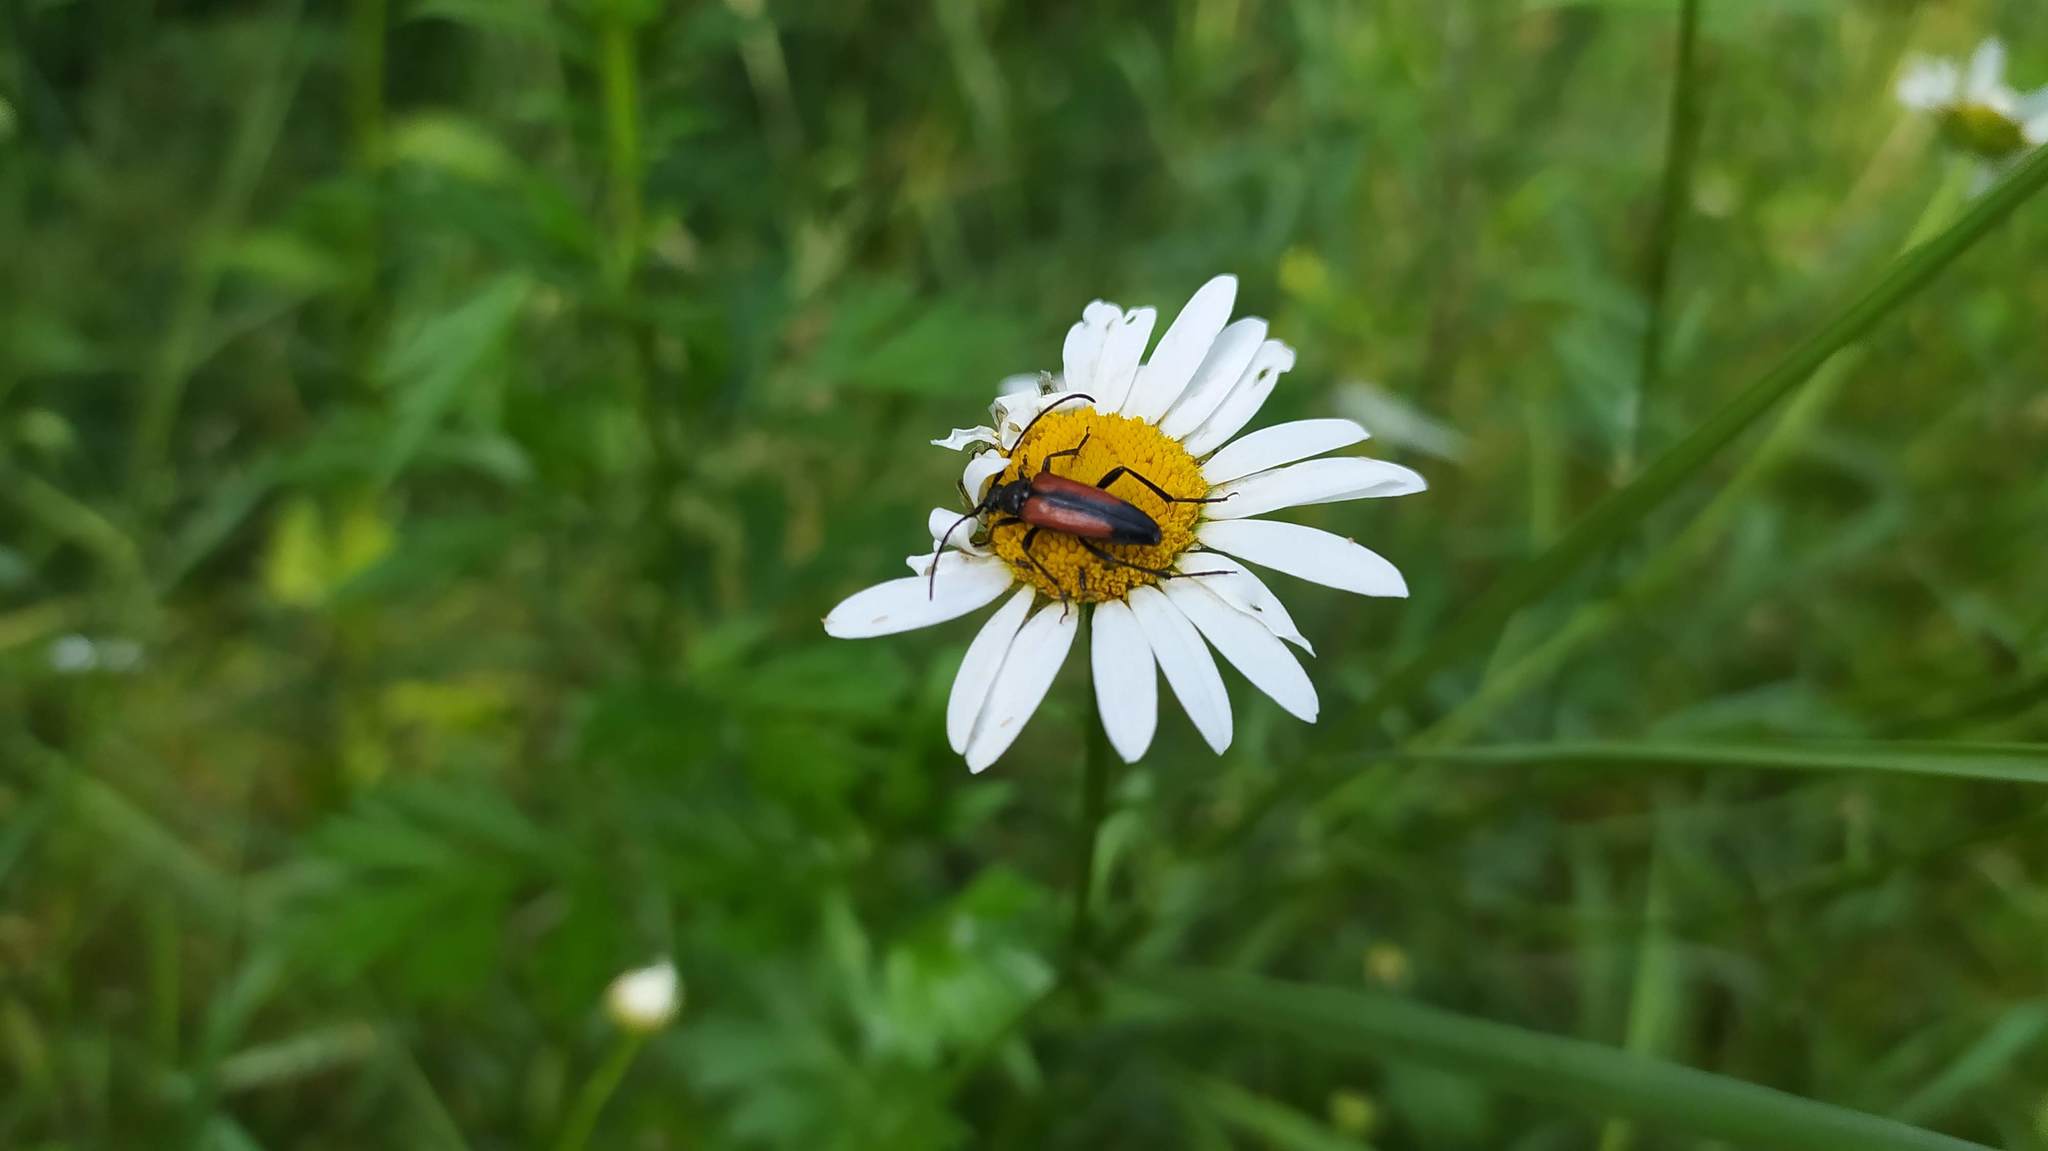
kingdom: Animalia
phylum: Arthropoda
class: Insecta
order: Coleoptera
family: Cerambycidae
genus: Stenurella
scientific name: Stenurella melanura
